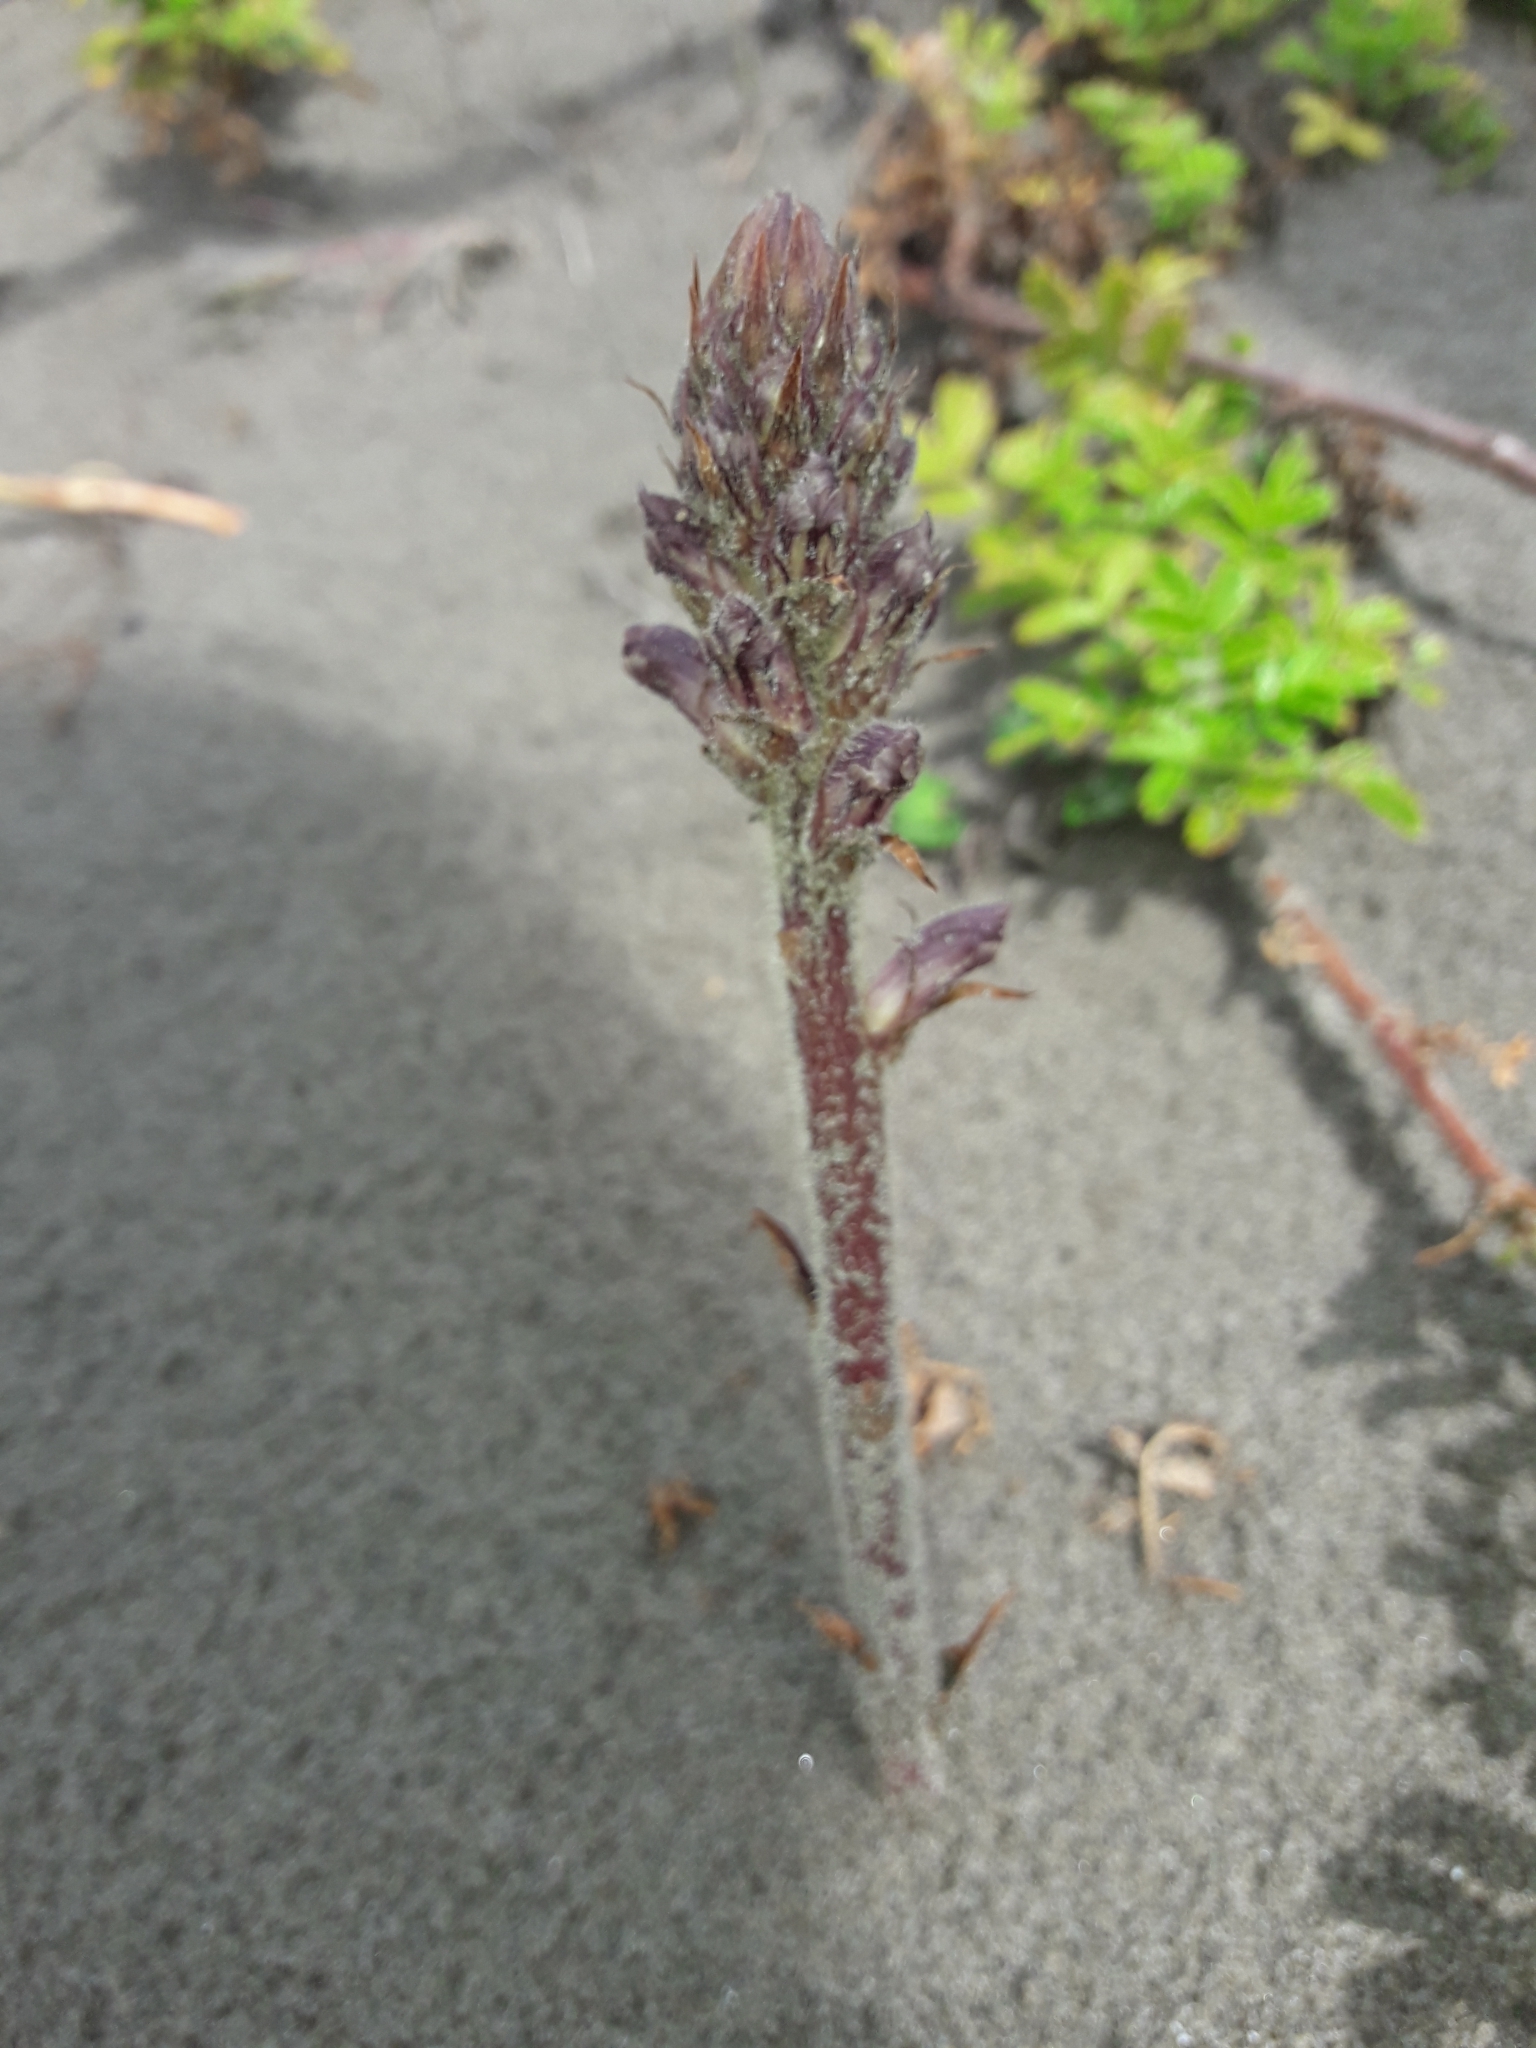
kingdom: Plantae
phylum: Tracheophyta
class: Magnoliopsida
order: Lamiales
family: Orobanchaceae
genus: Orobanche
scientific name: Orobanche minor
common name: Common broomrape
